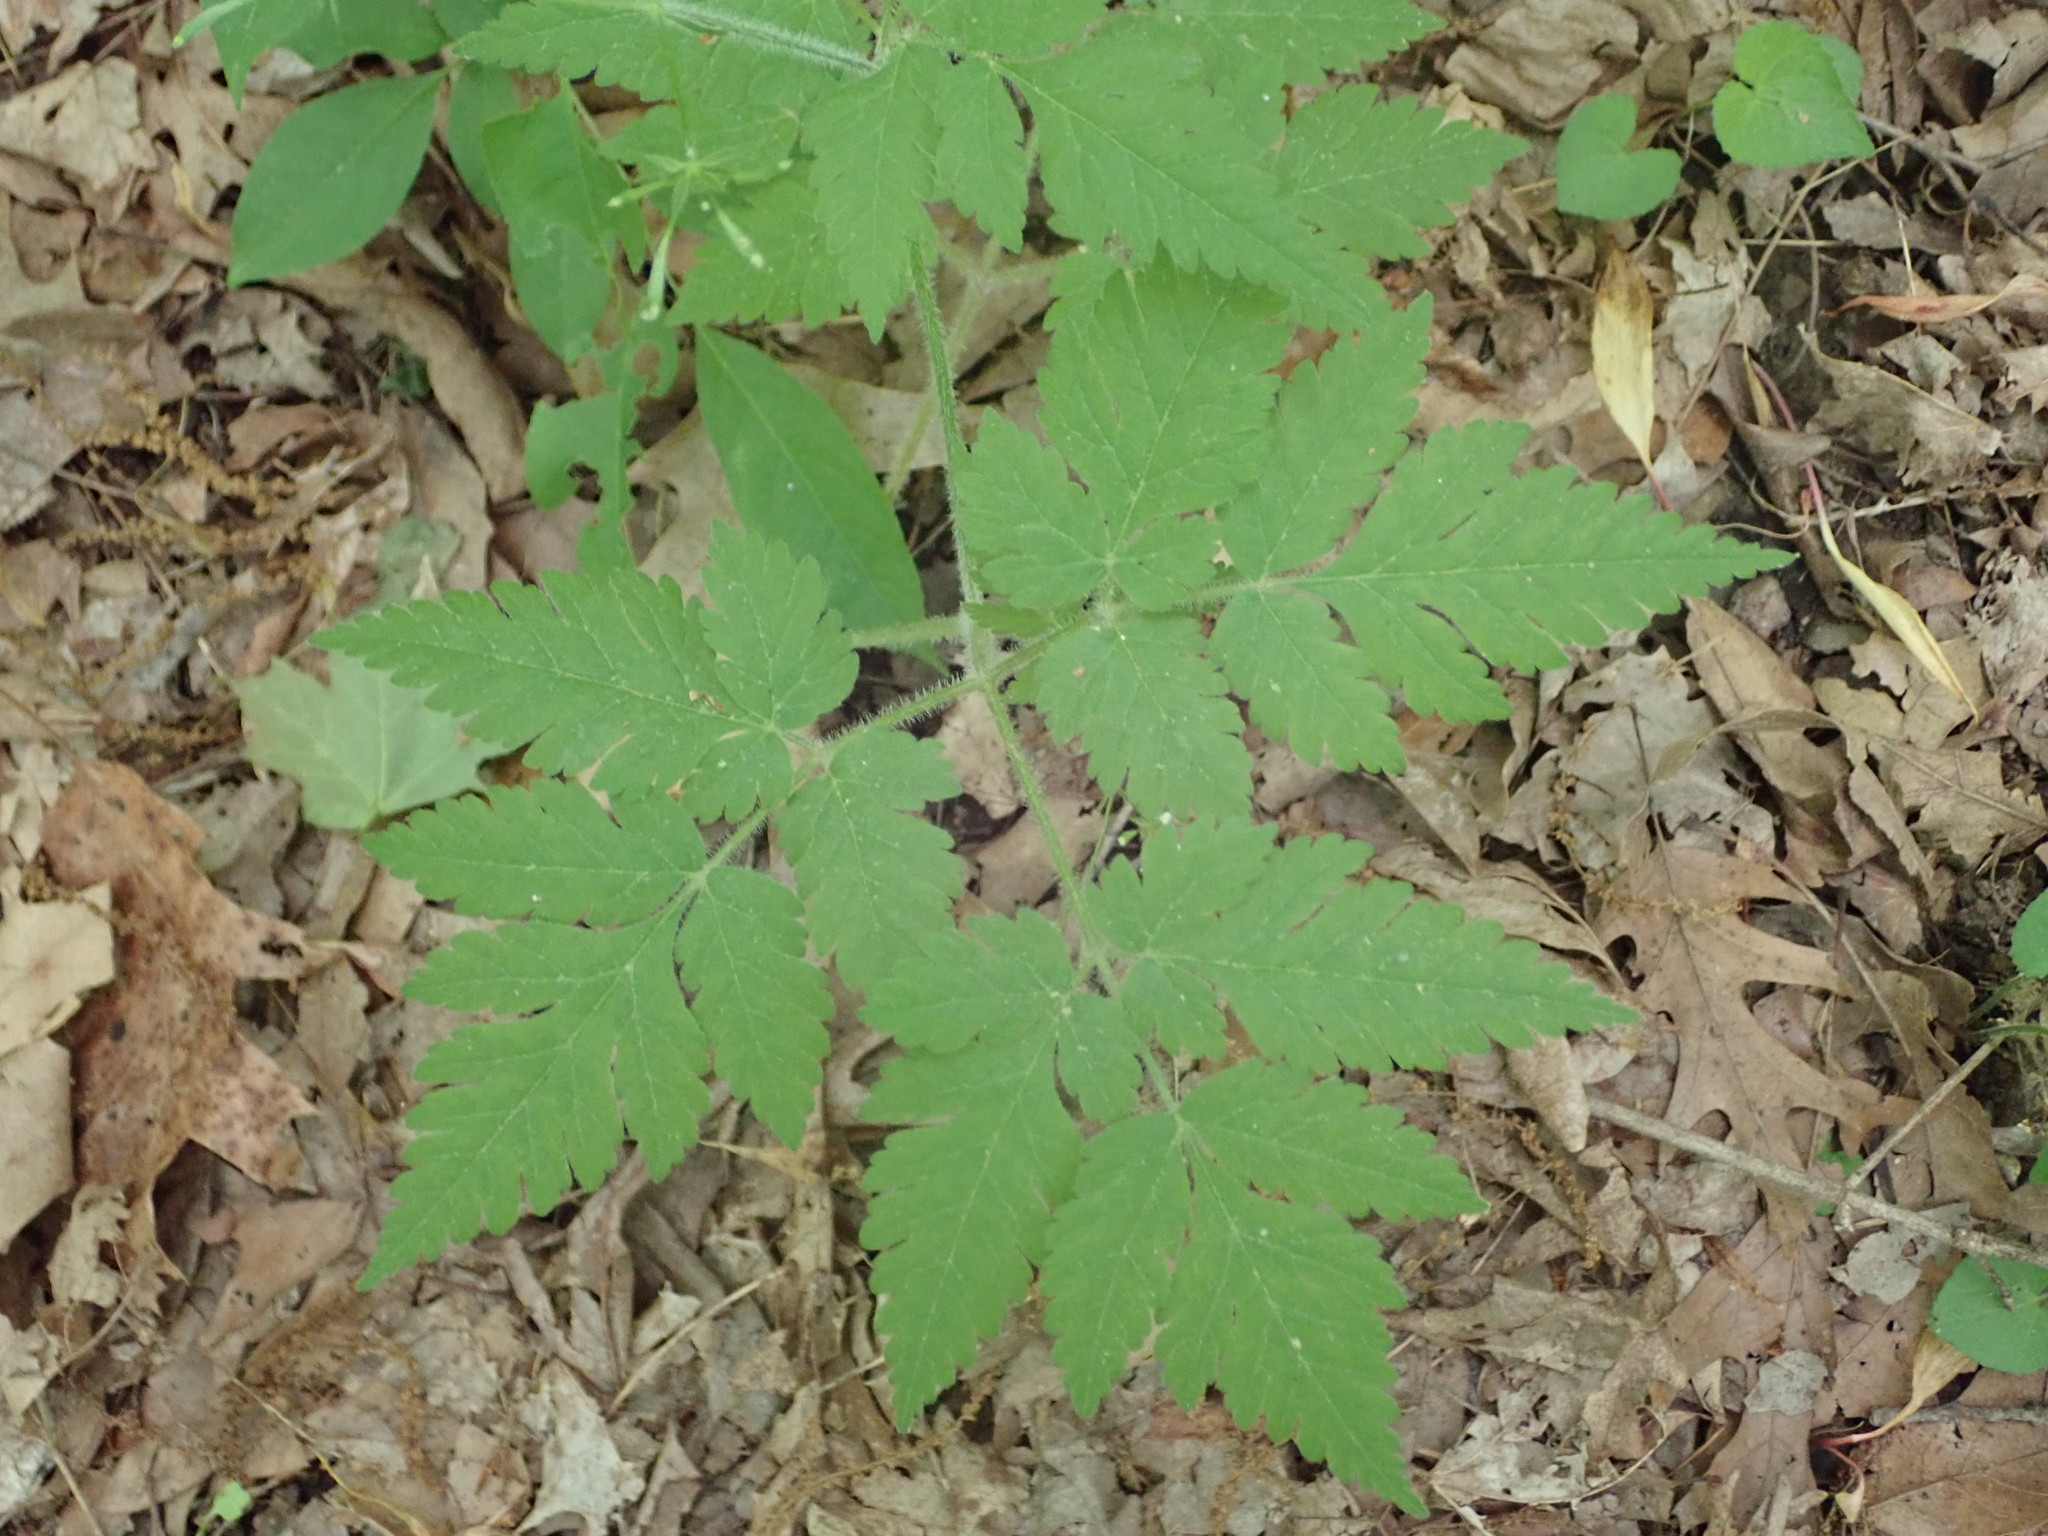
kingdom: Plantae
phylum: Tracheophyta
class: Magnoliopsida
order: Apiales
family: Apiaceae
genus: Osmorhiza
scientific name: Osmorhiza claytonii
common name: Hairy sweet cicely
